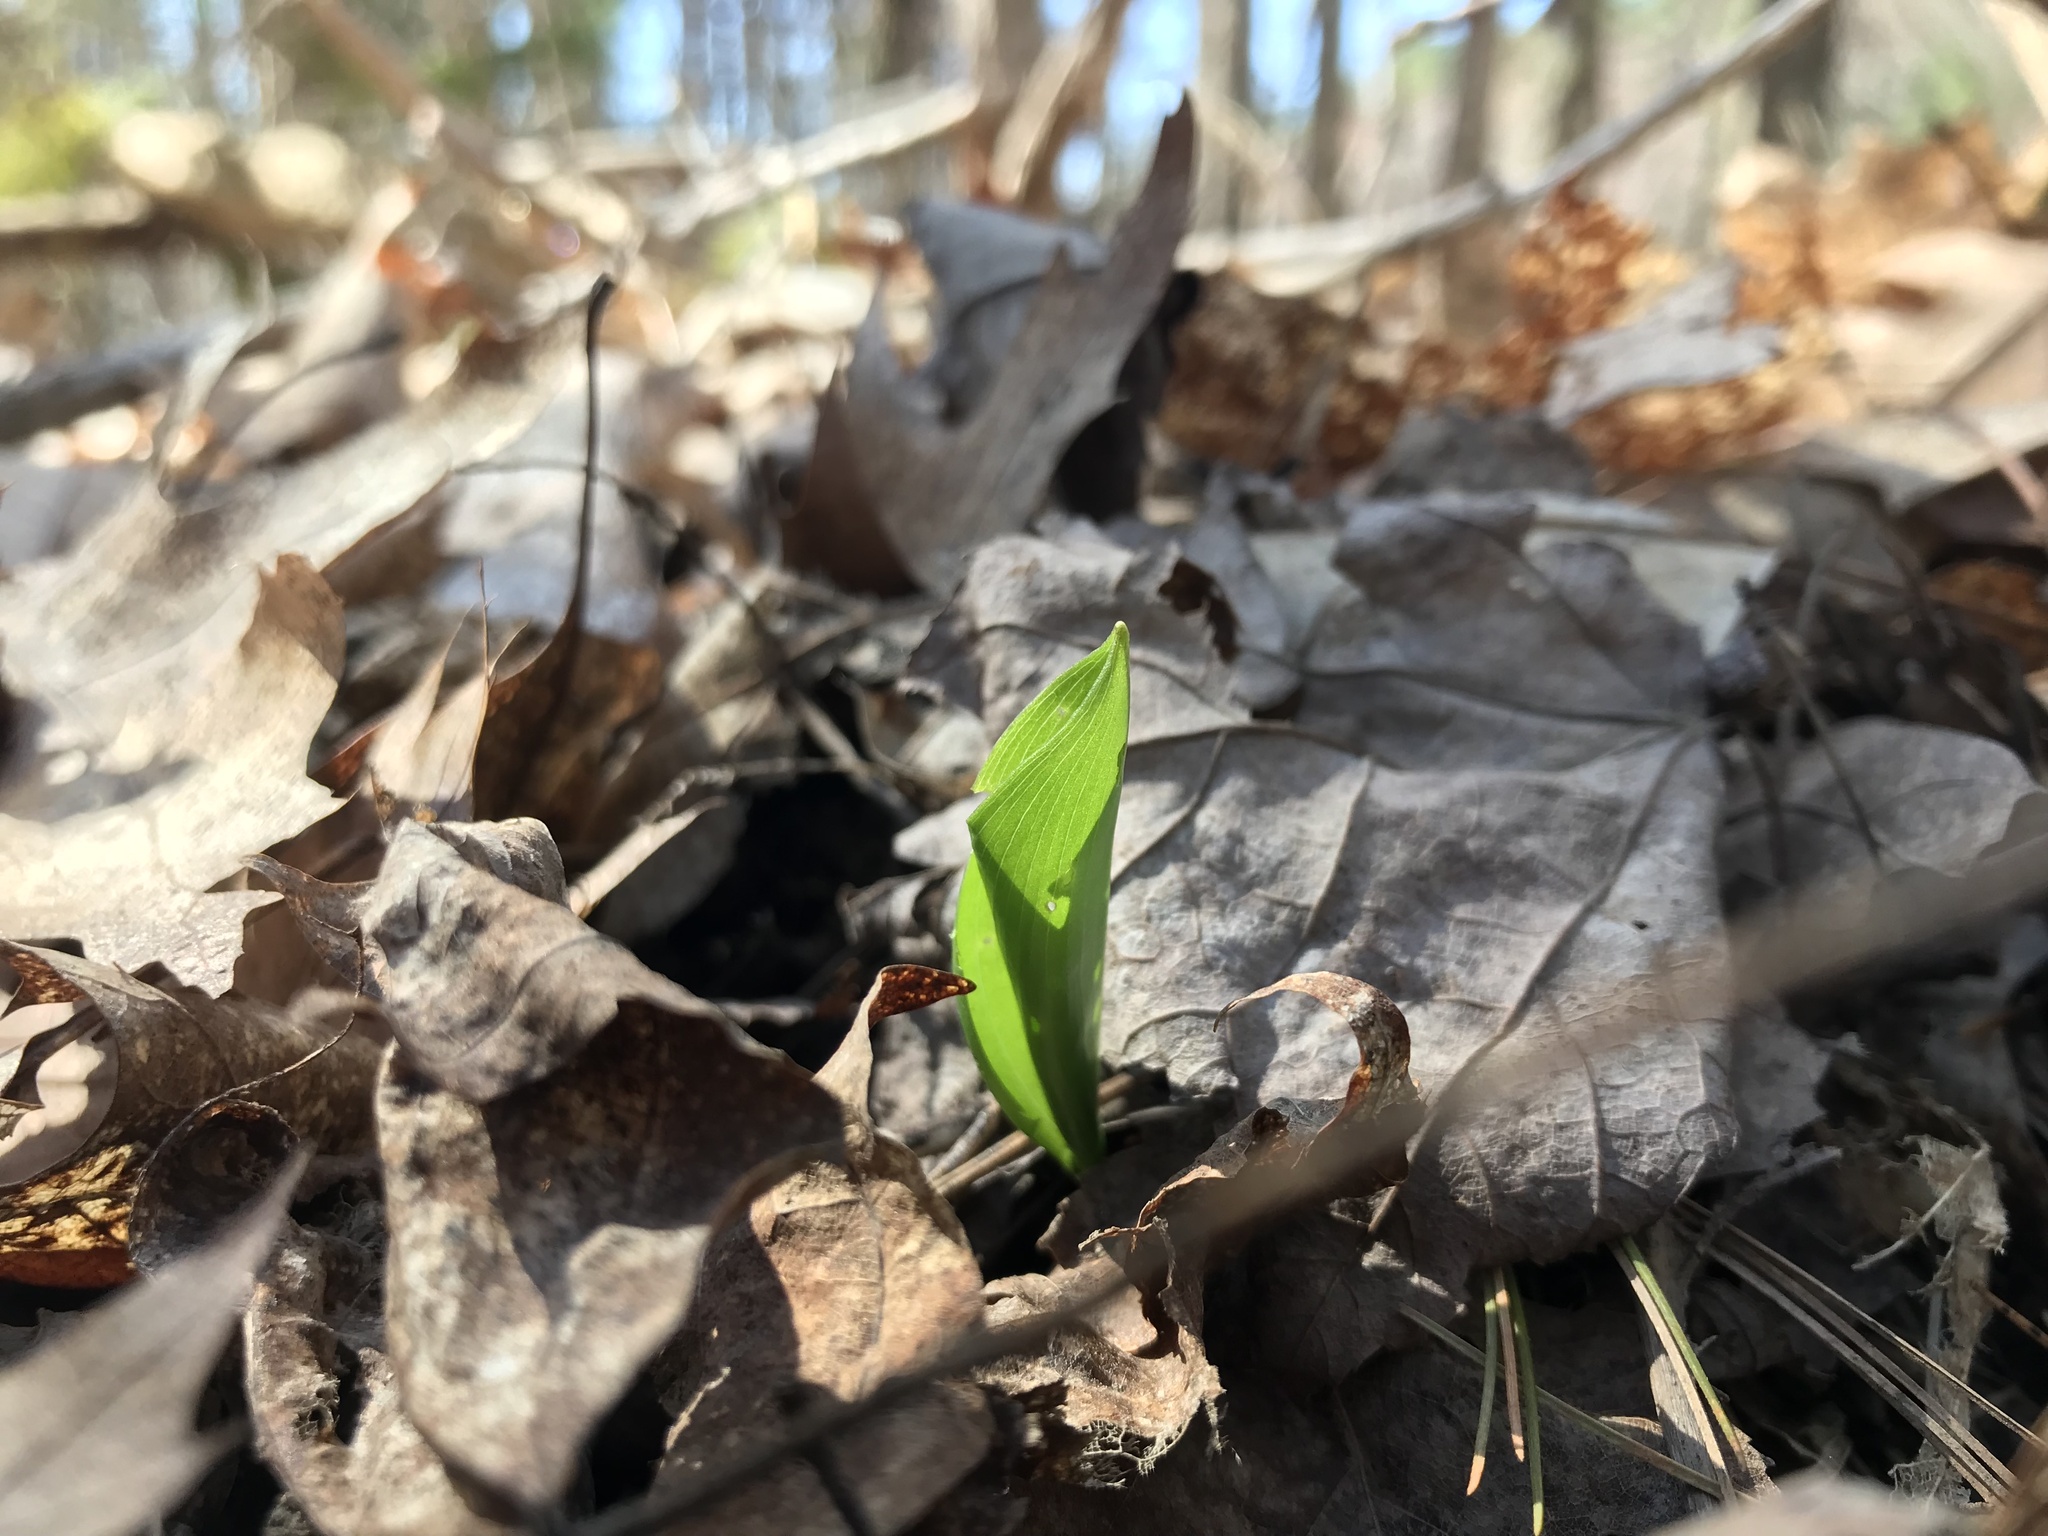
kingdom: Plantae
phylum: Tracheophyta
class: Liliopsida
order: Asparagales
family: Asparagaceae
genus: Maianthemum
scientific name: Maianthemum canadense
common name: False lily-of-the-valley
